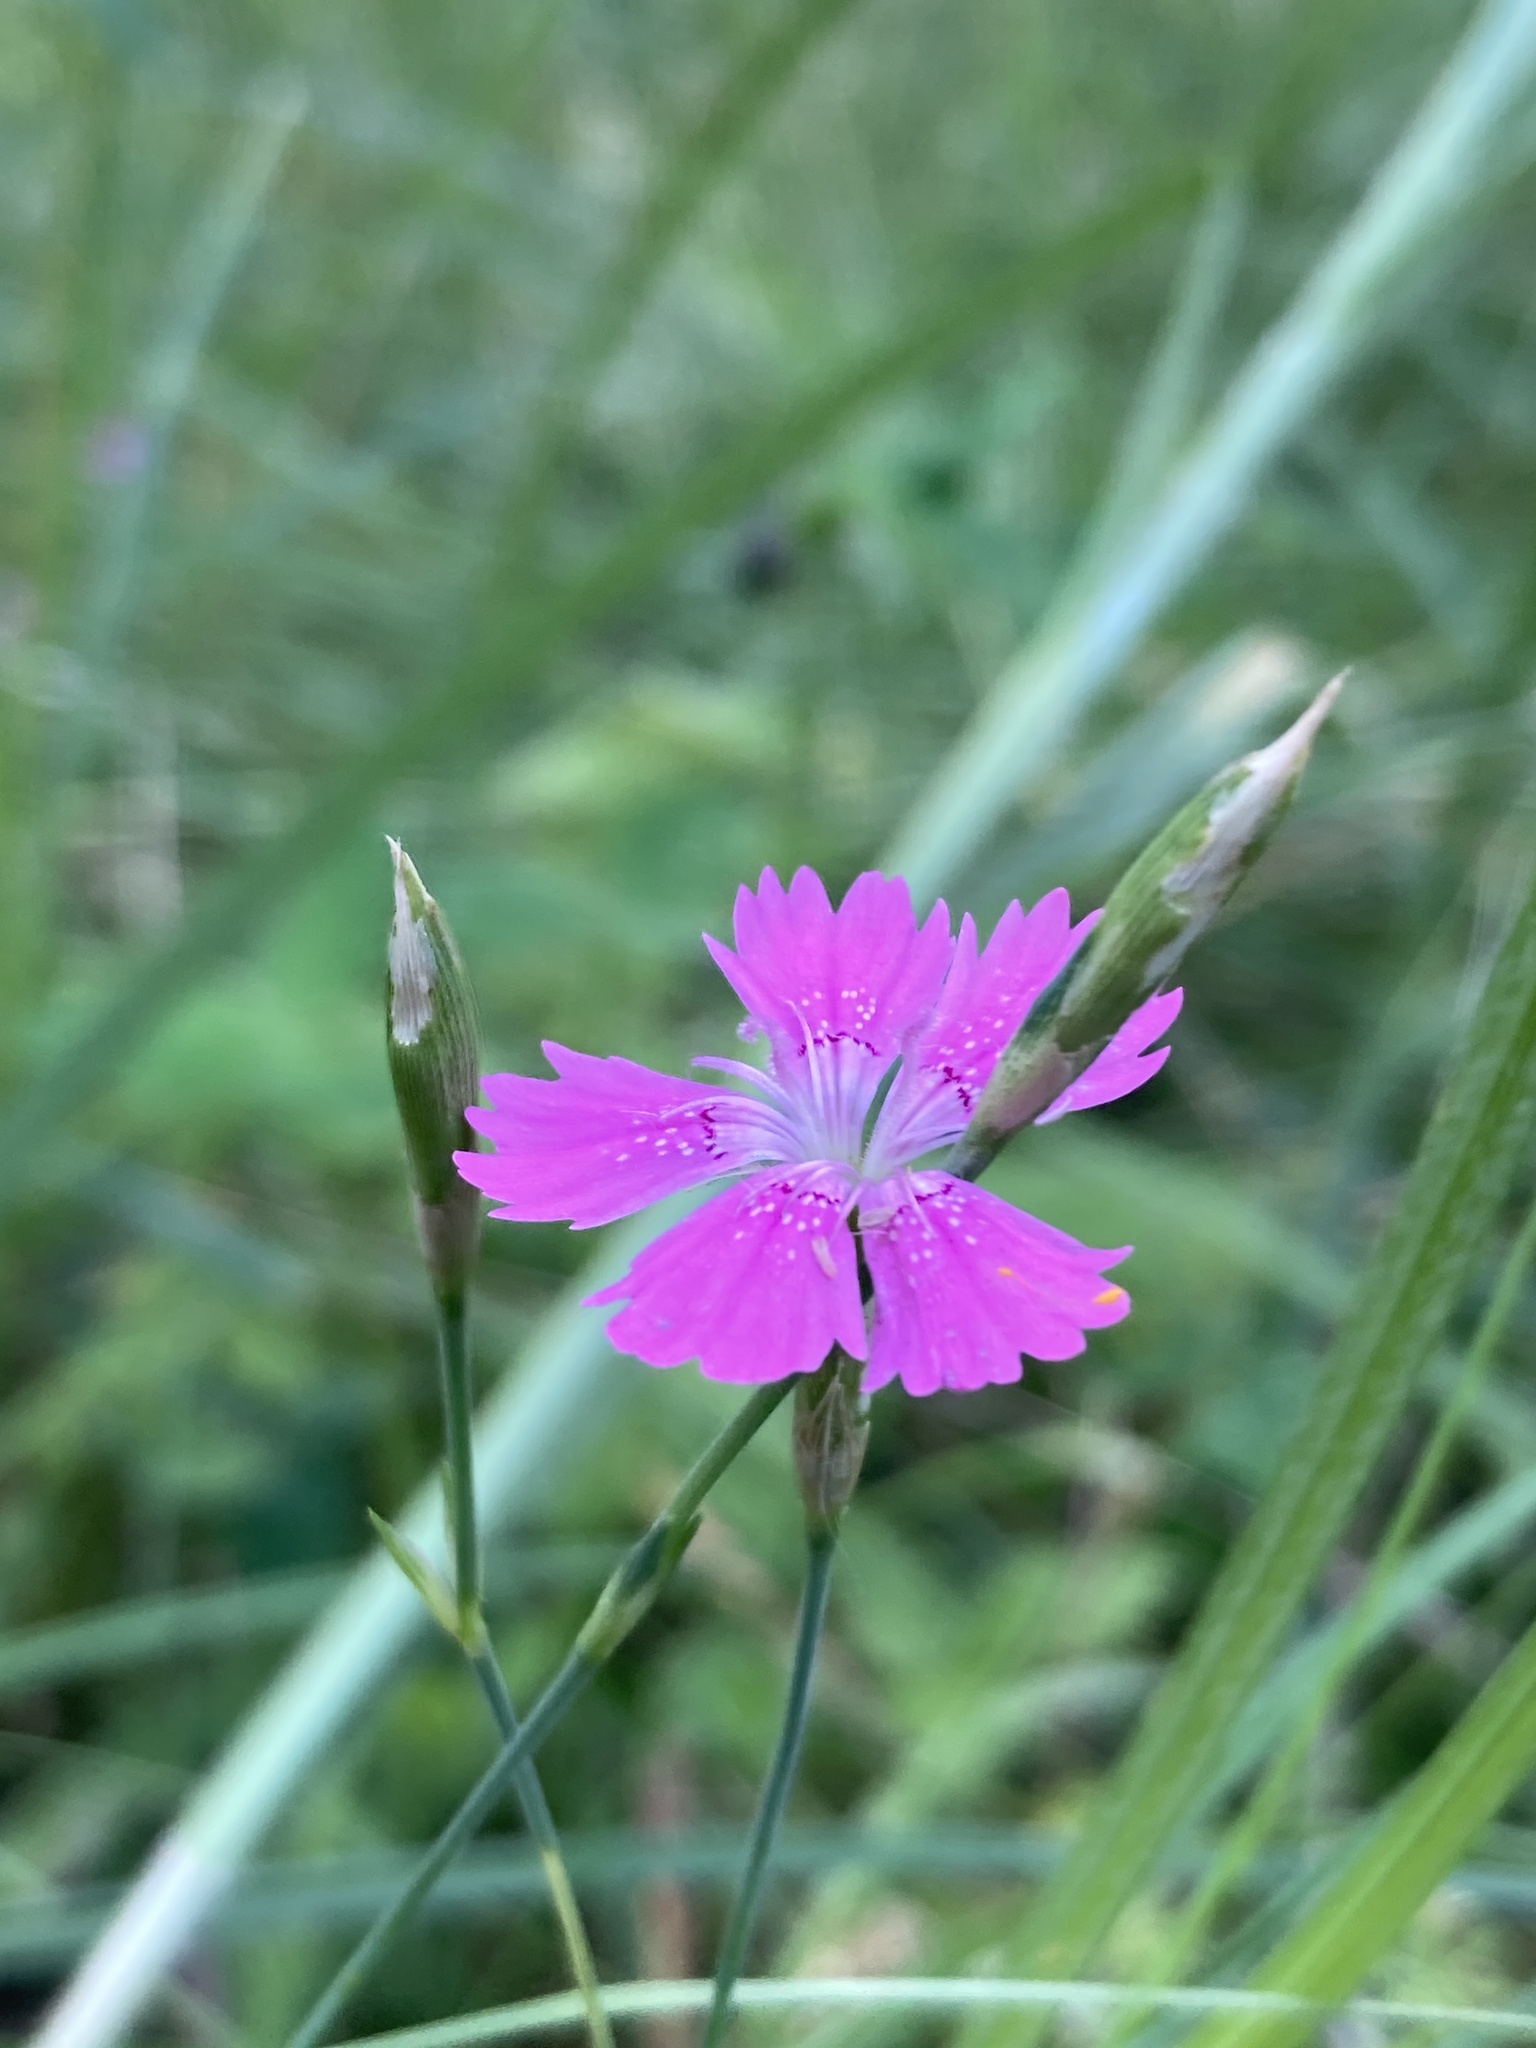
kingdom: Plantae
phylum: Tracheophyta
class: Magnoliopsida
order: Caryophyllales
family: Caryophyllaceae
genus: Dianthus
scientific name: Dianthus deltoides
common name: Maiden pink
